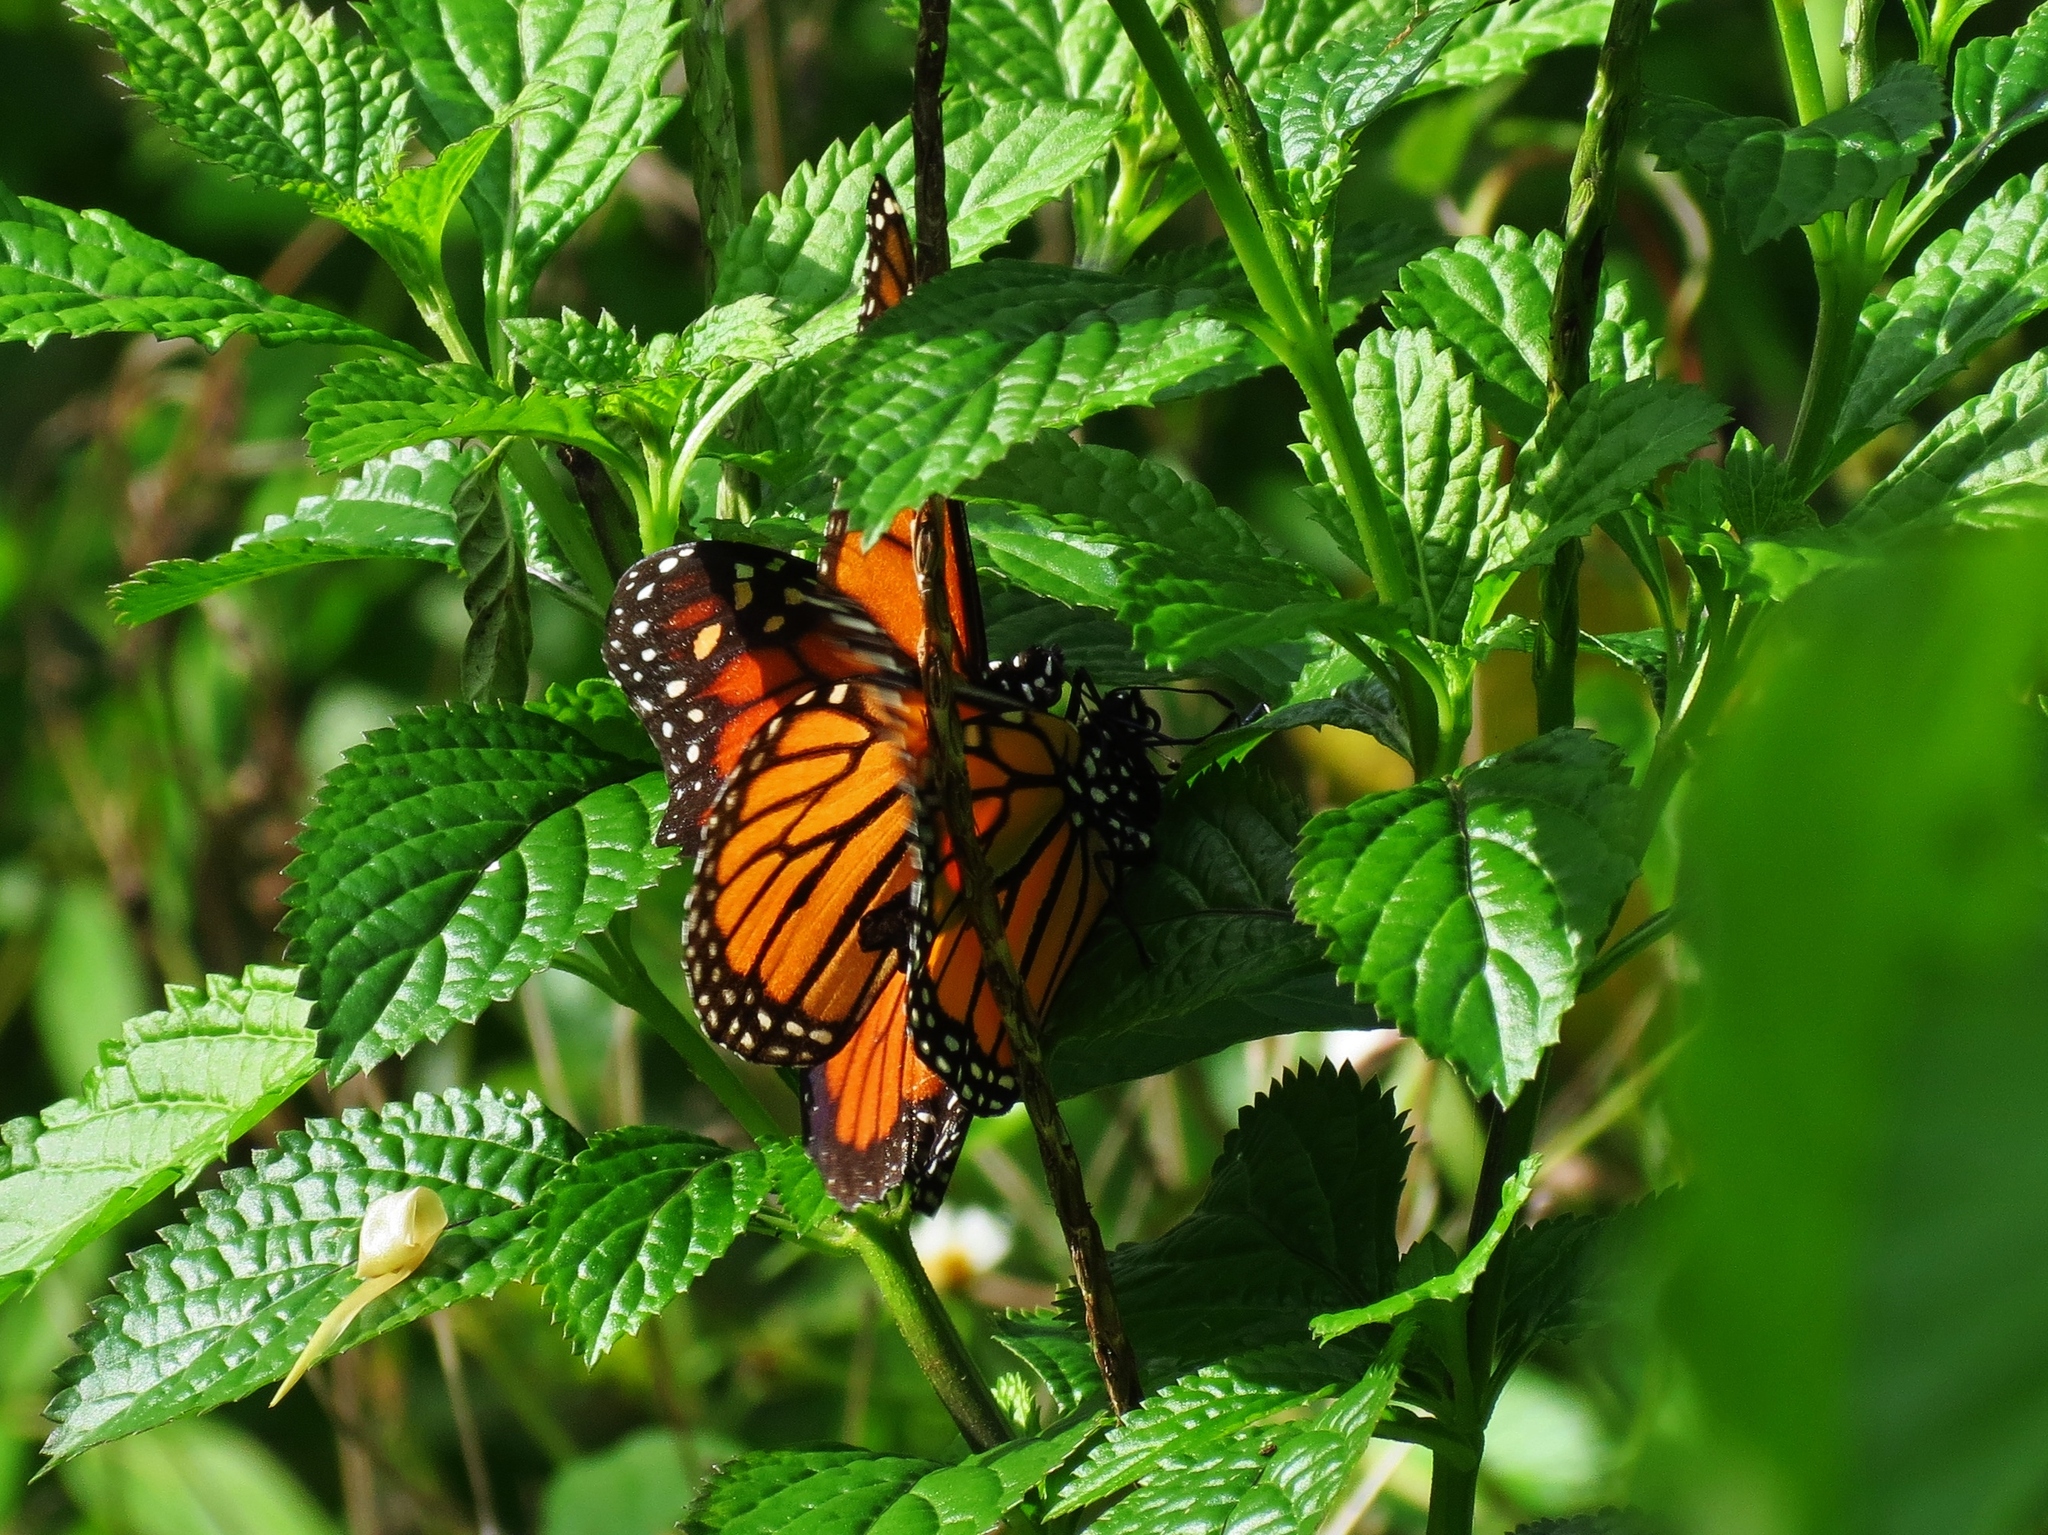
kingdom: Animalia
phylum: Arthropoda
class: Insecta
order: Lepidoptera
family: Nymphalidae
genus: Danaus
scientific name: Danaus plexippus
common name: Monarch
